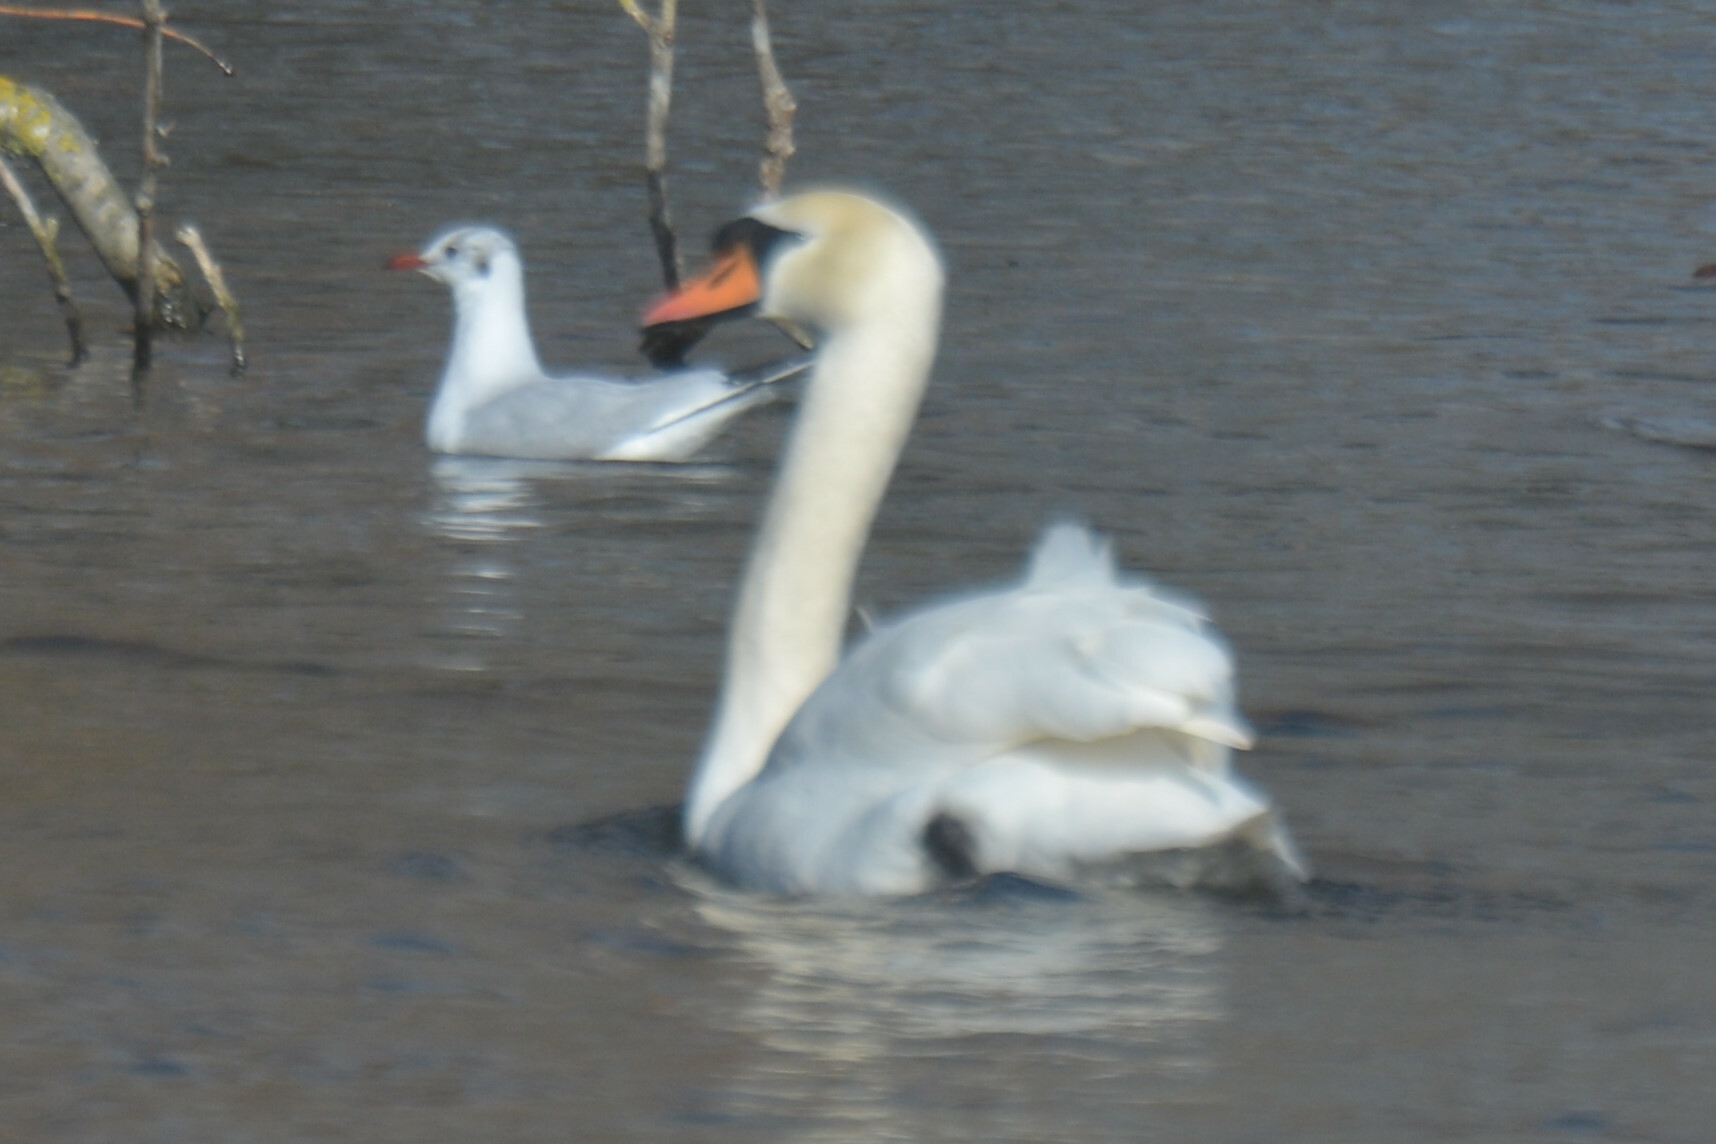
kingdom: Animalia
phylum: Chordata
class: Aves
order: Anseriformes
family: Anatidae
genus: Cygnus
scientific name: Cygnus olor
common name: Mute swan
